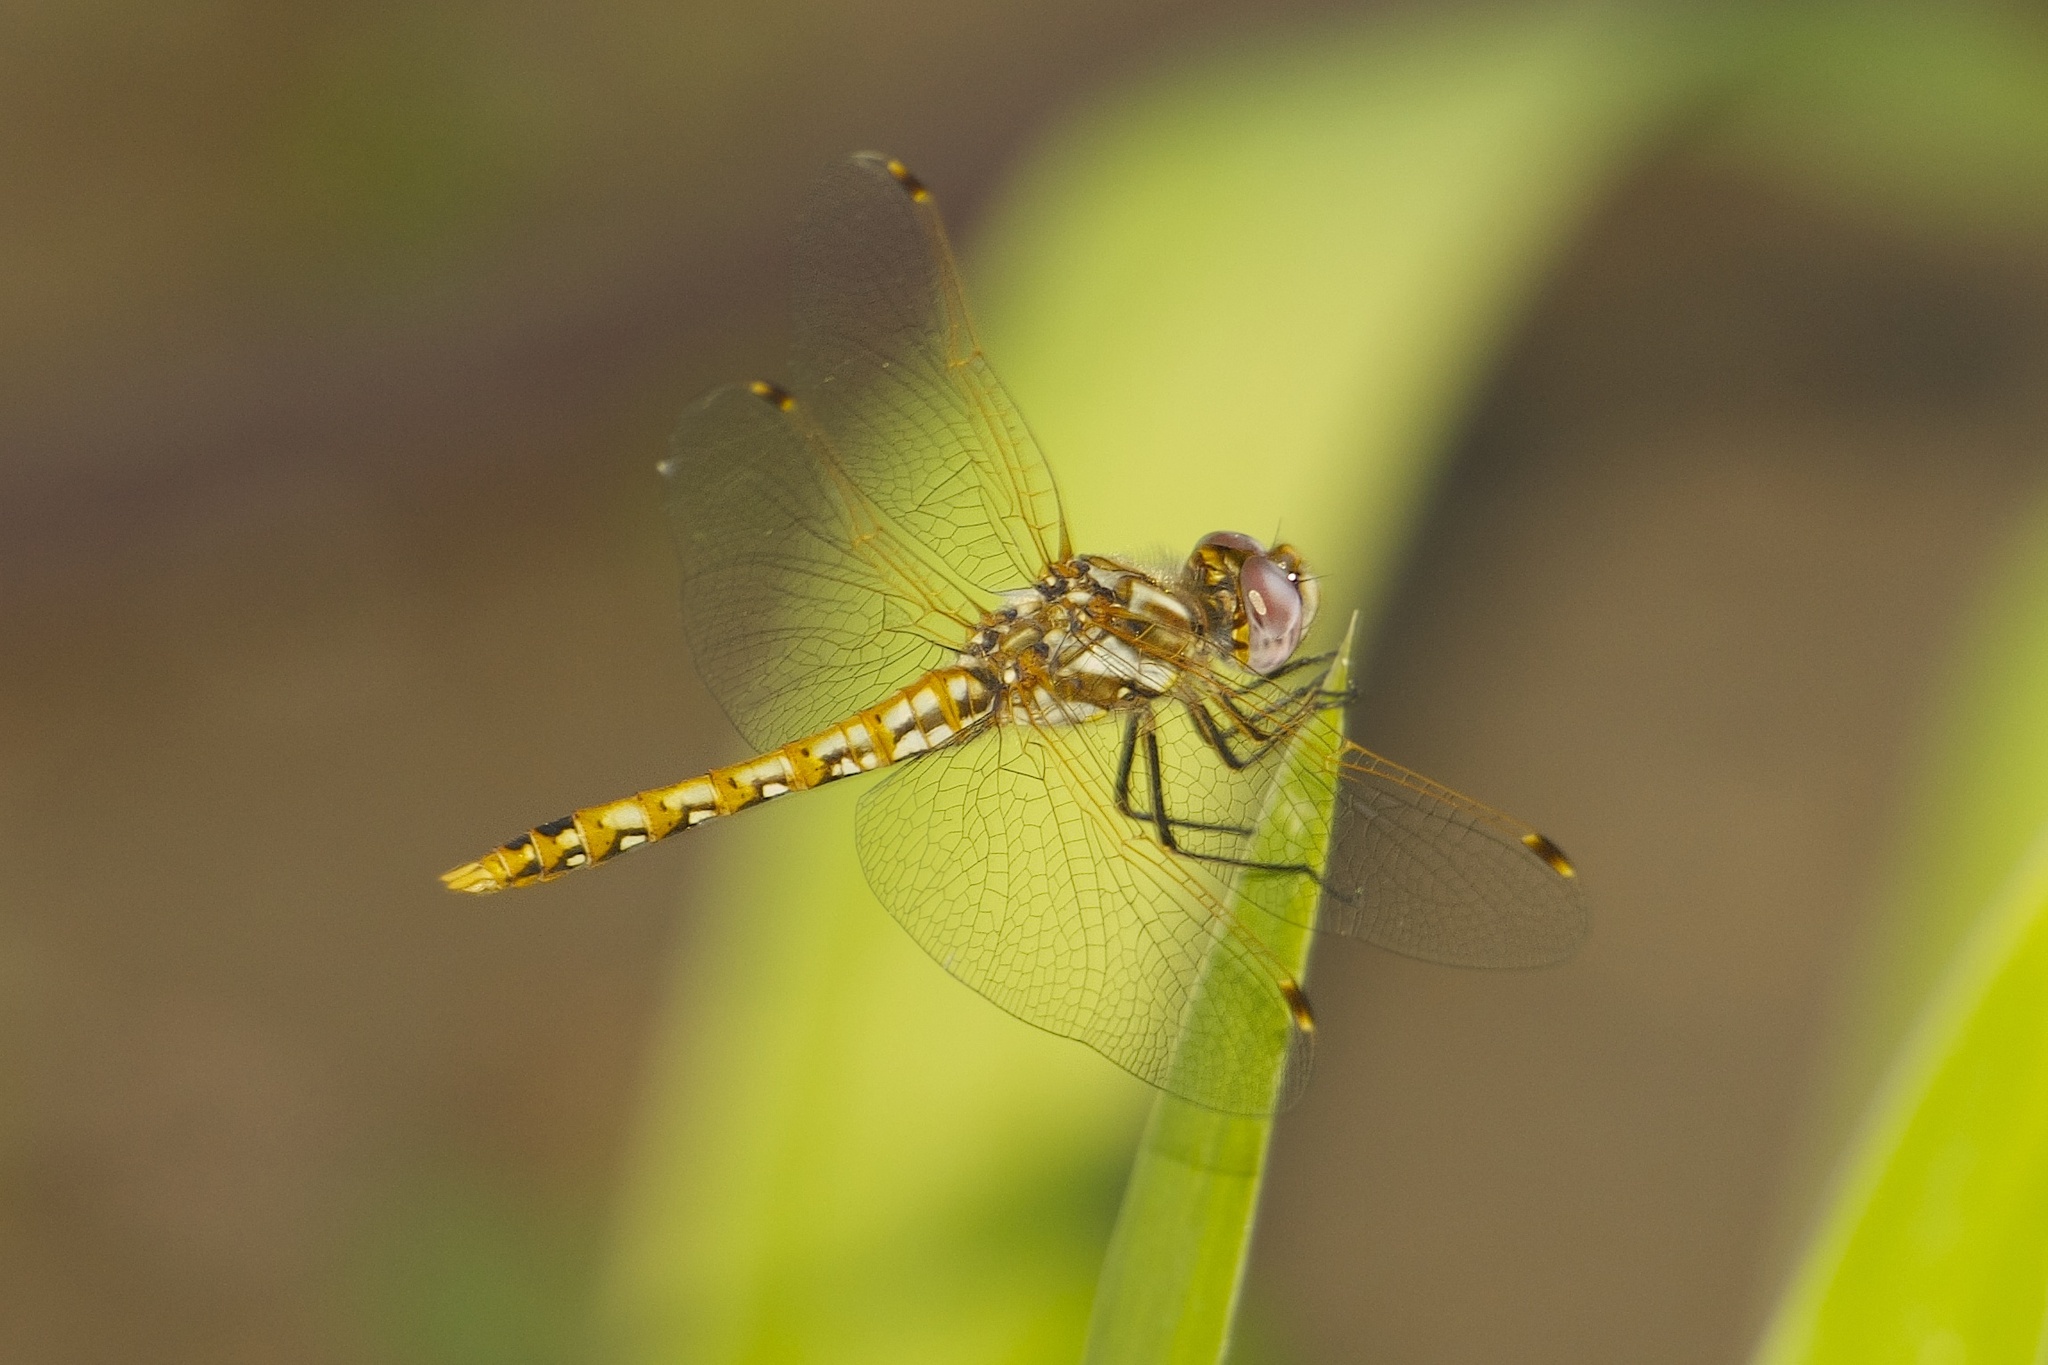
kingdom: Animalia
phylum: Arthropoda
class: Insecta
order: Odonata
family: Libellulidae
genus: Sympetrum
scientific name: Sympetrum corruptum
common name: Variegated meadowhawk
